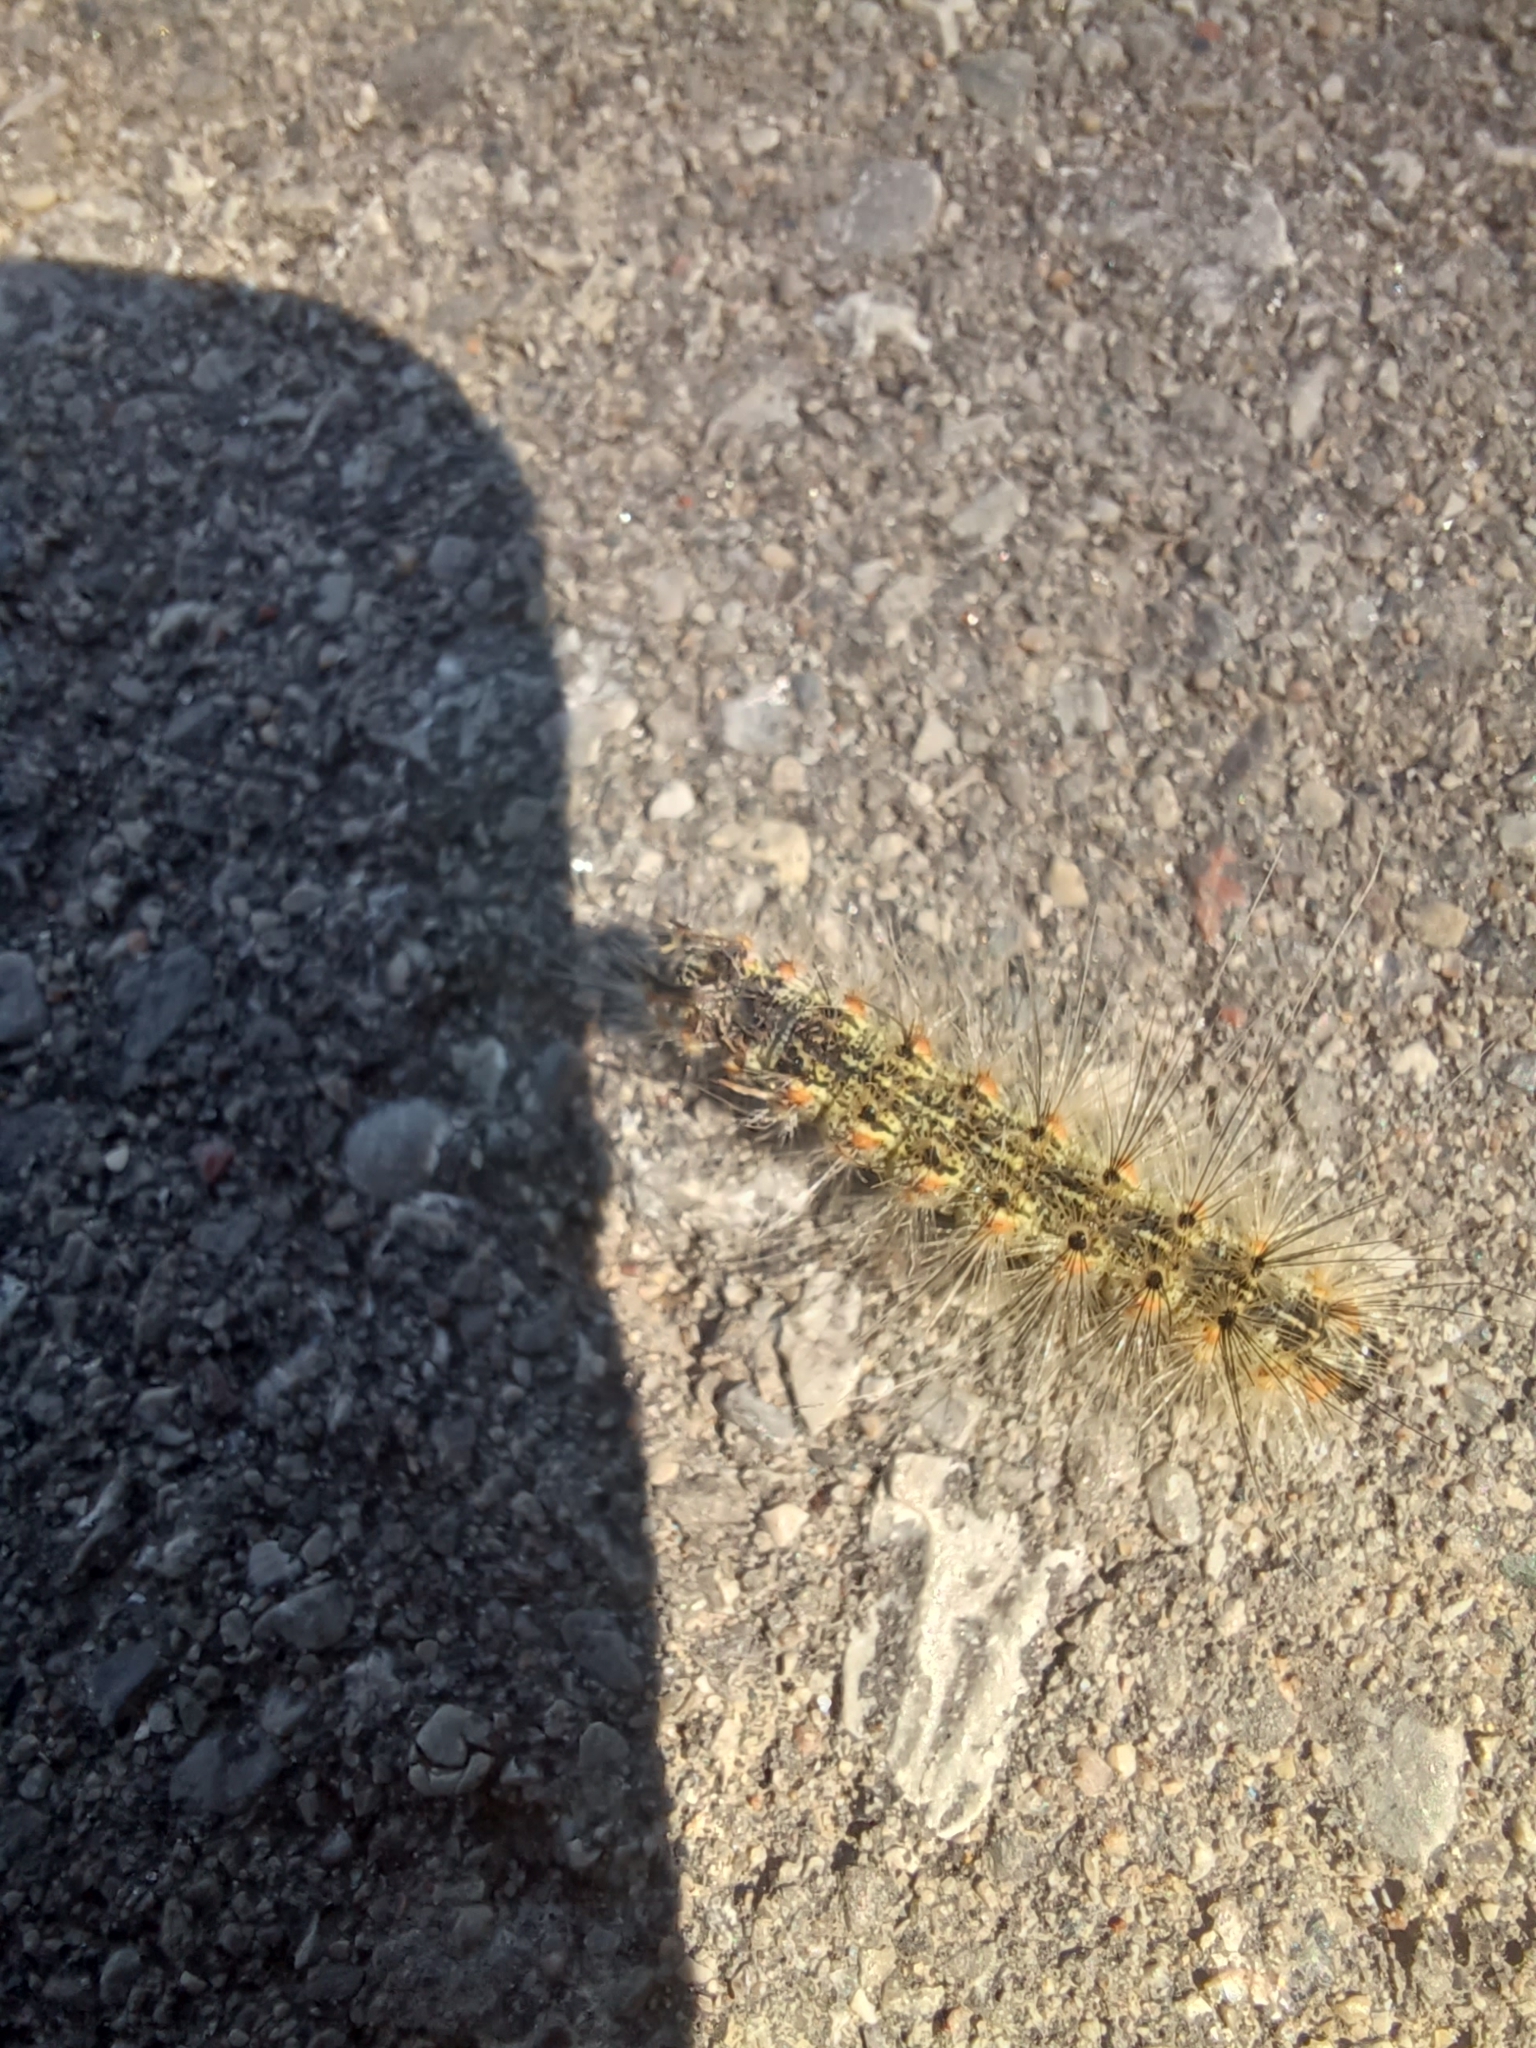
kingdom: Animalia
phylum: Arthropoda
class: Insecta
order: Lepidoptera
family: Erebidae
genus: Hyphantria
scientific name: Hyphantria cunea
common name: American white moth
